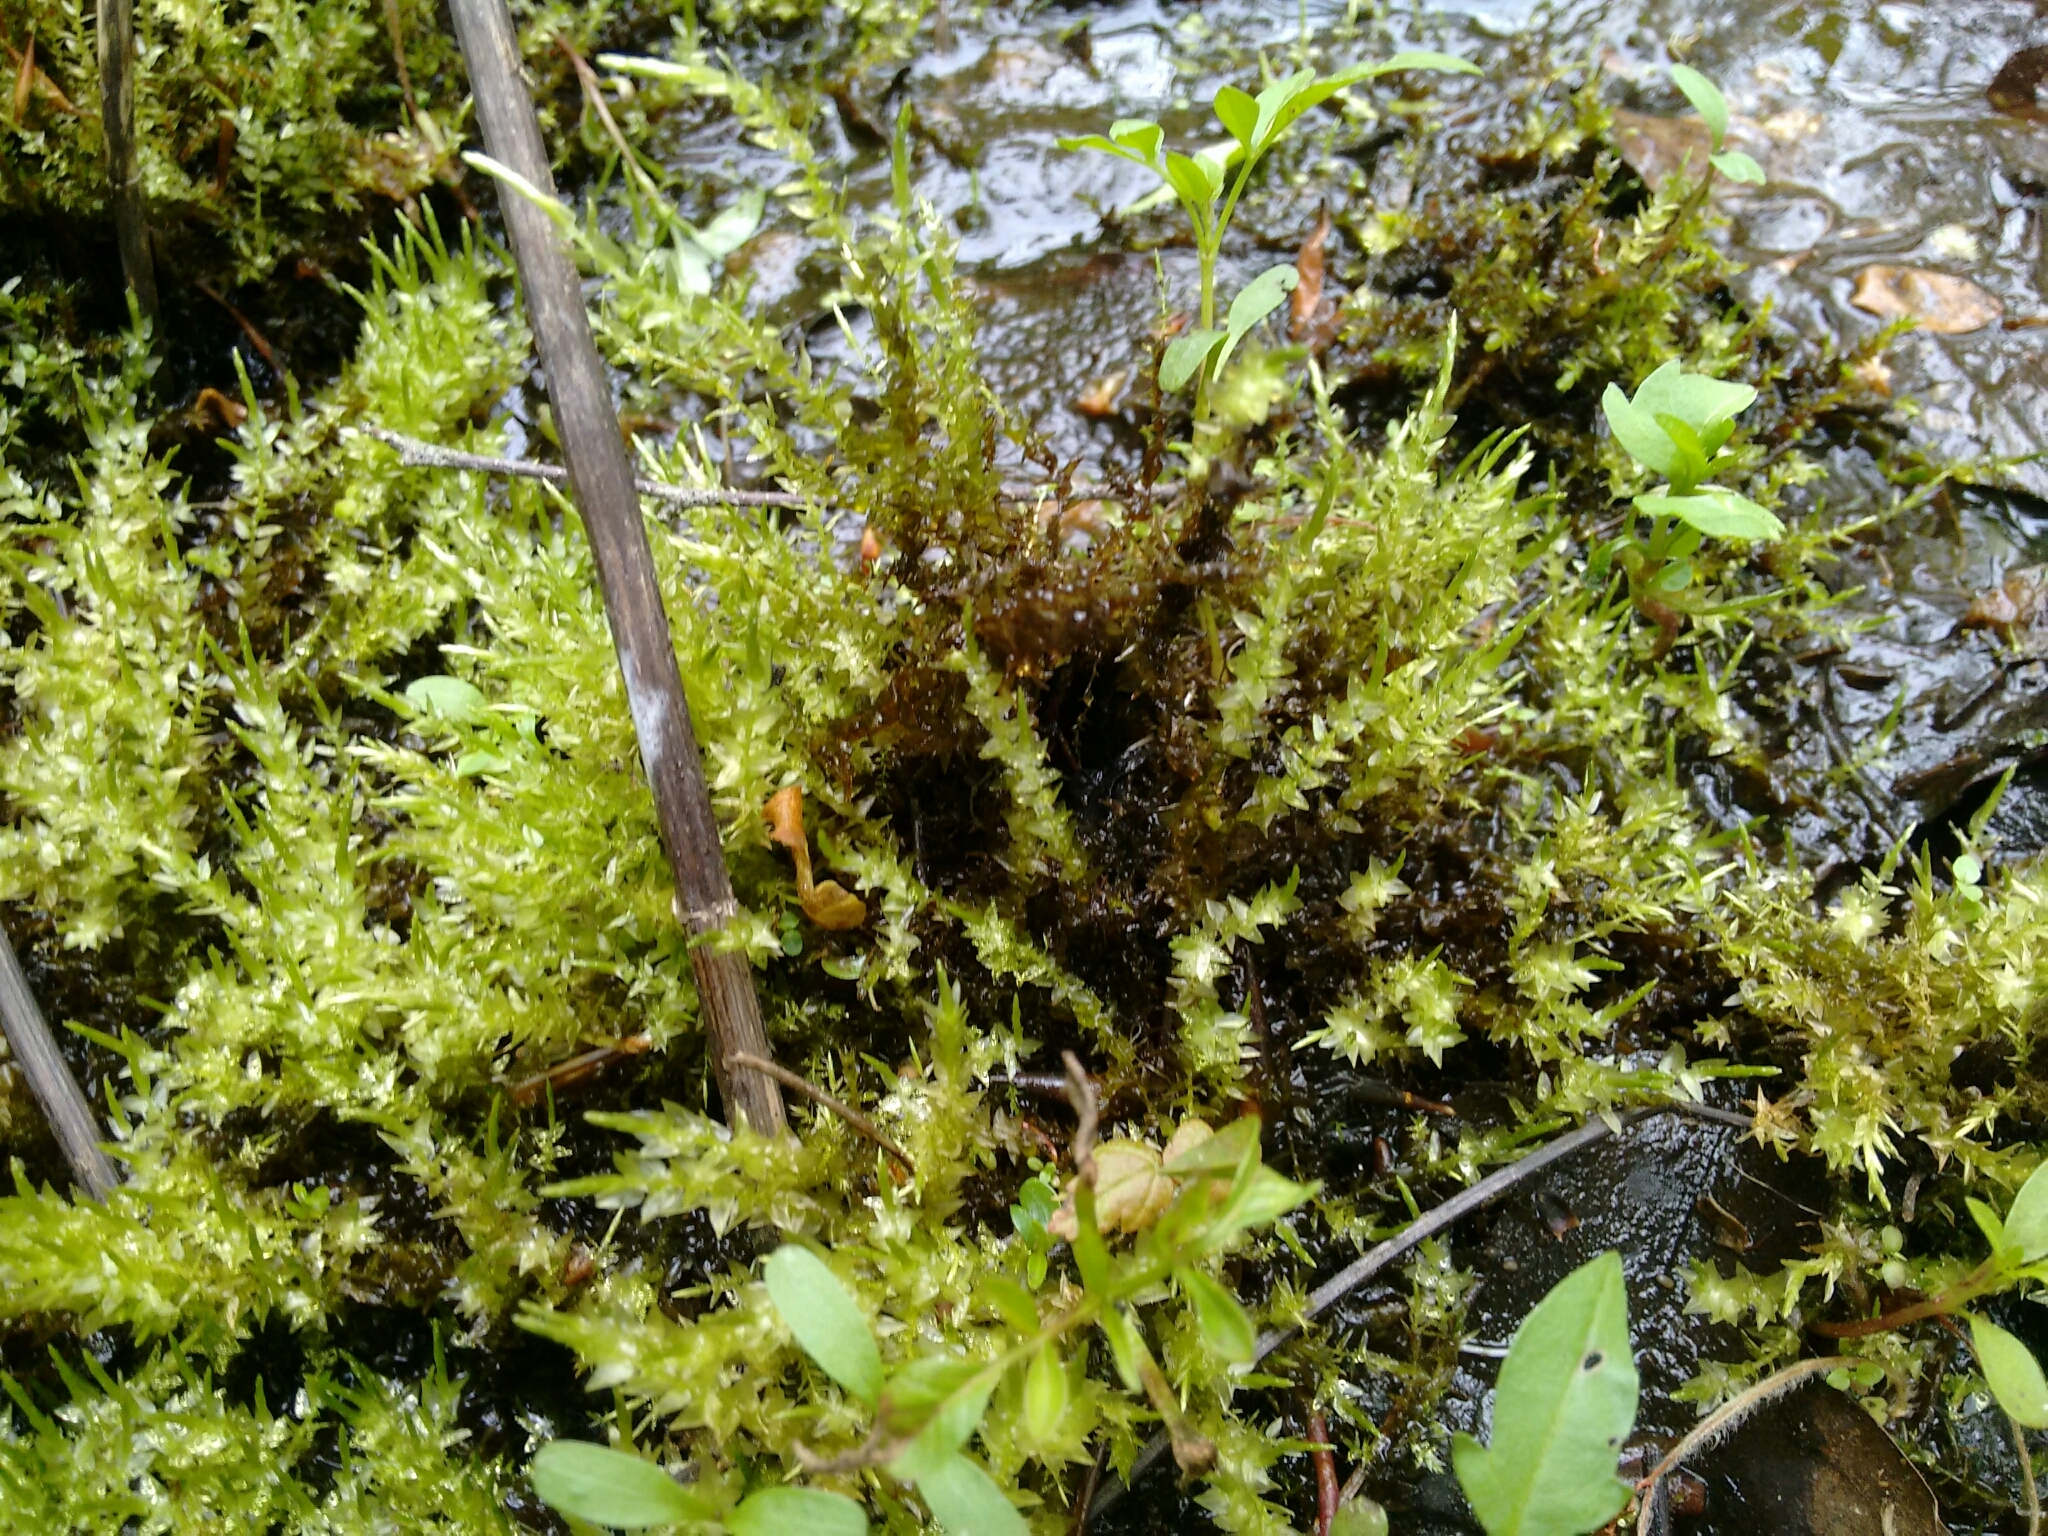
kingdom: Plantae
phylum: Bryophyta
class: Bryopsida
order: Hypnales
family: Calliergonaceae
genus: Calliergon
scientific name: Calliergon cordifolium
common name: Heart-leaved spear moss
